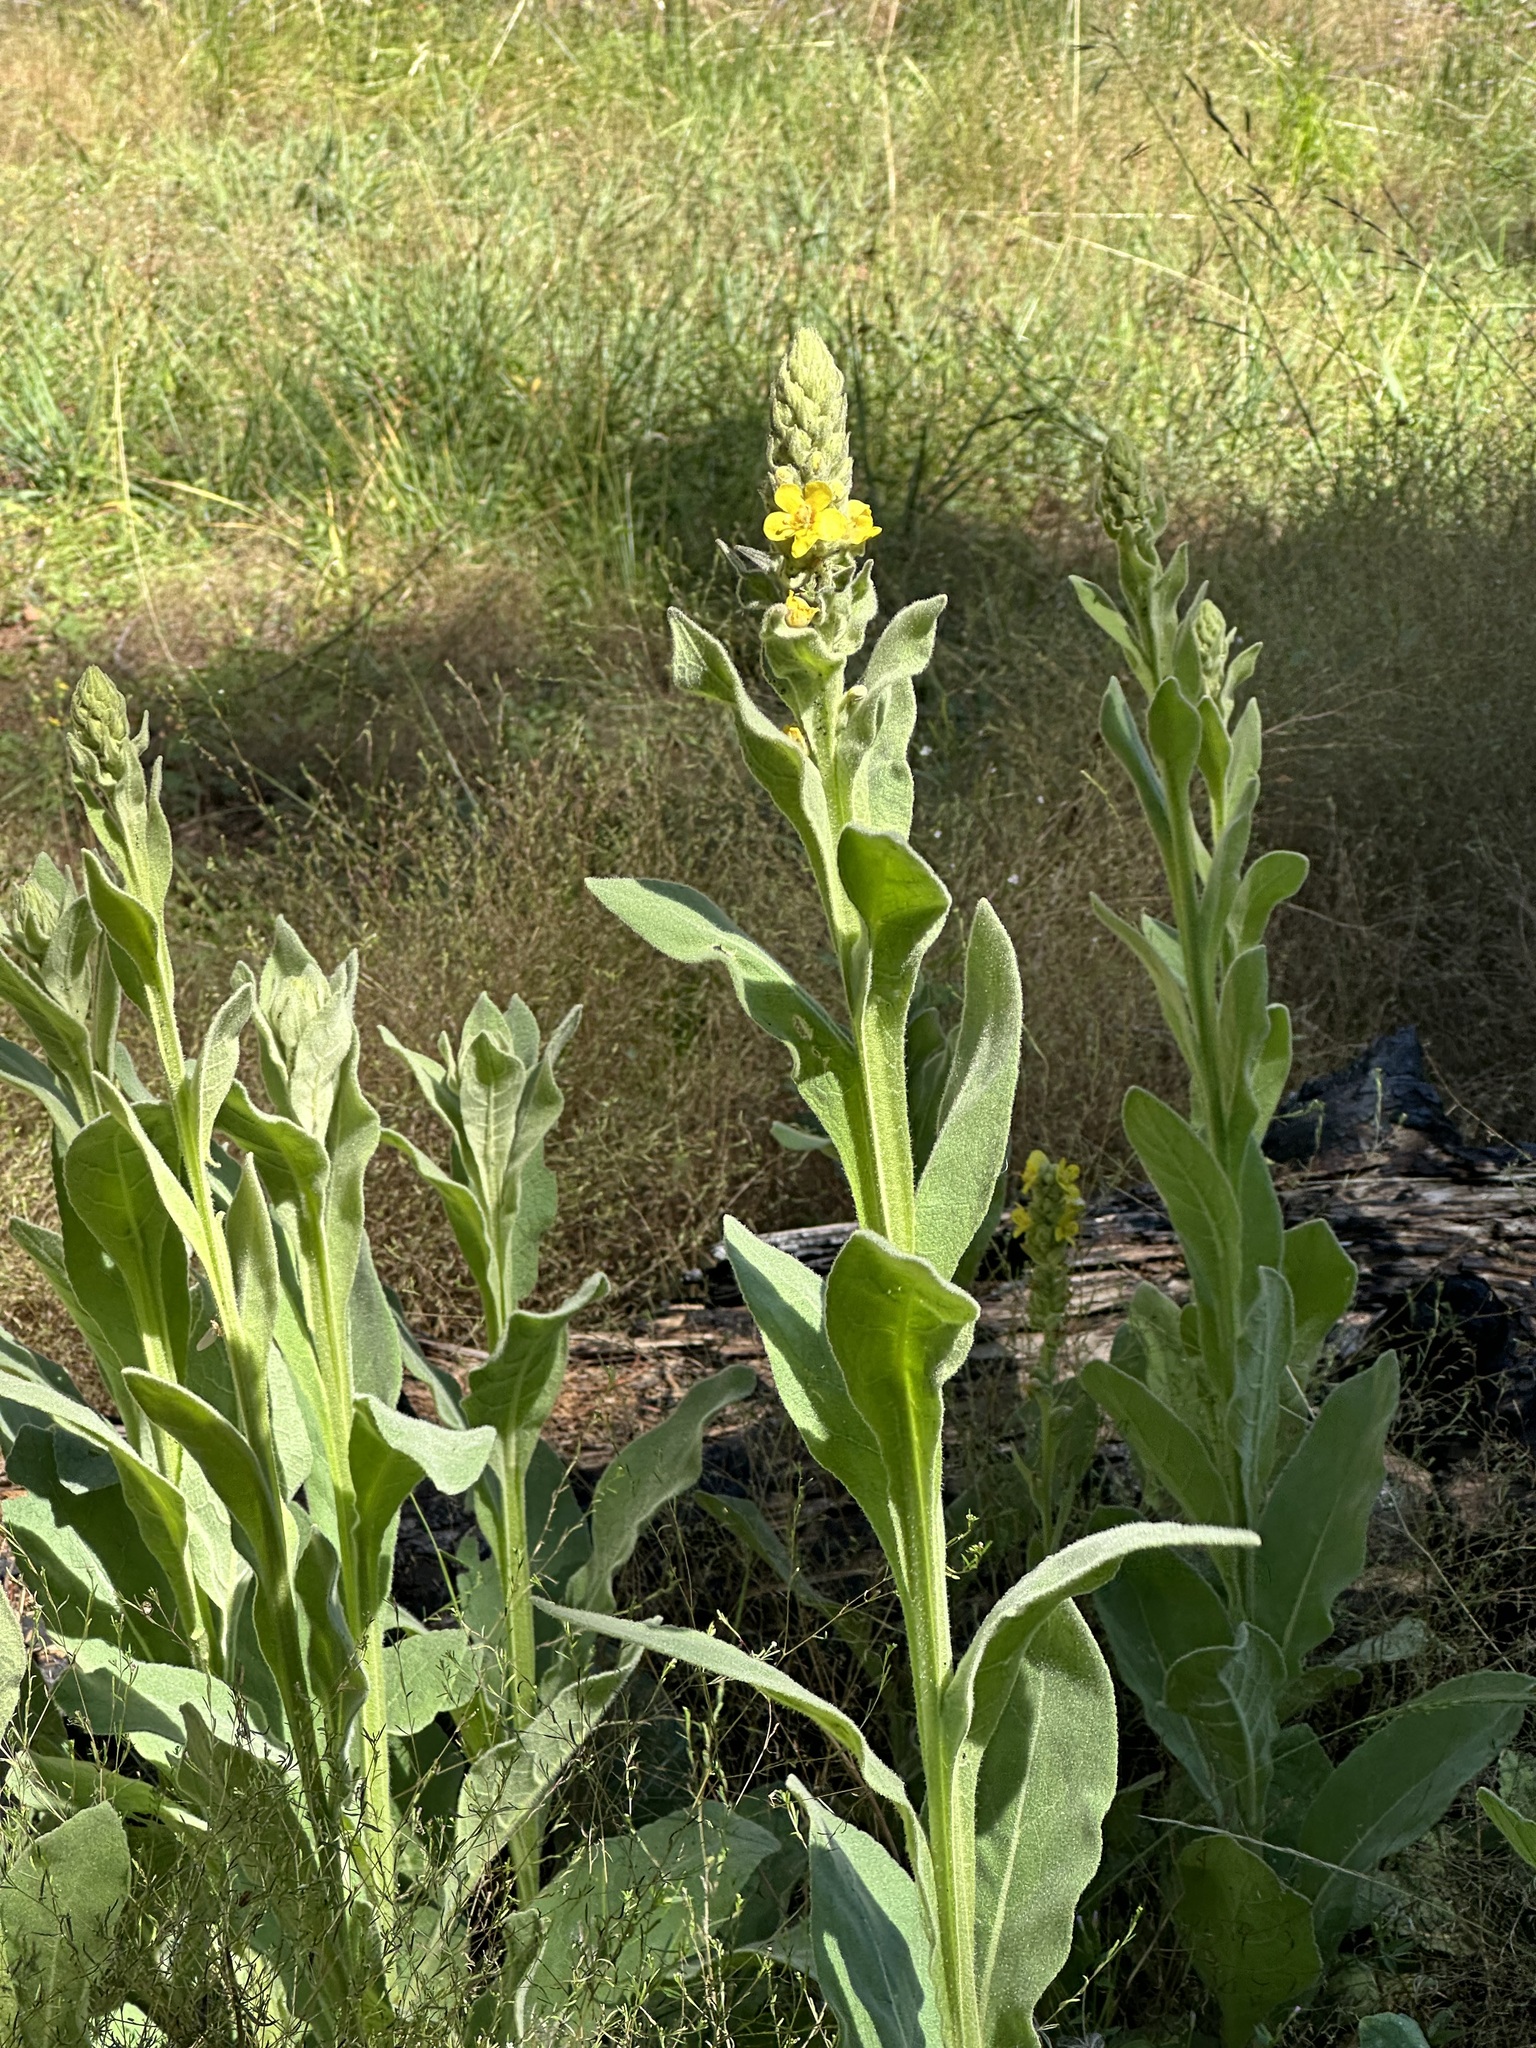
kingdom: Plantae
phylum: Tracheophyta
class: Magnoliopsida
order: Lamiales
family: Scrophulariaceae
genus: Verbascum
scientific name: Verbascum thapsus
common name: Common mullein
